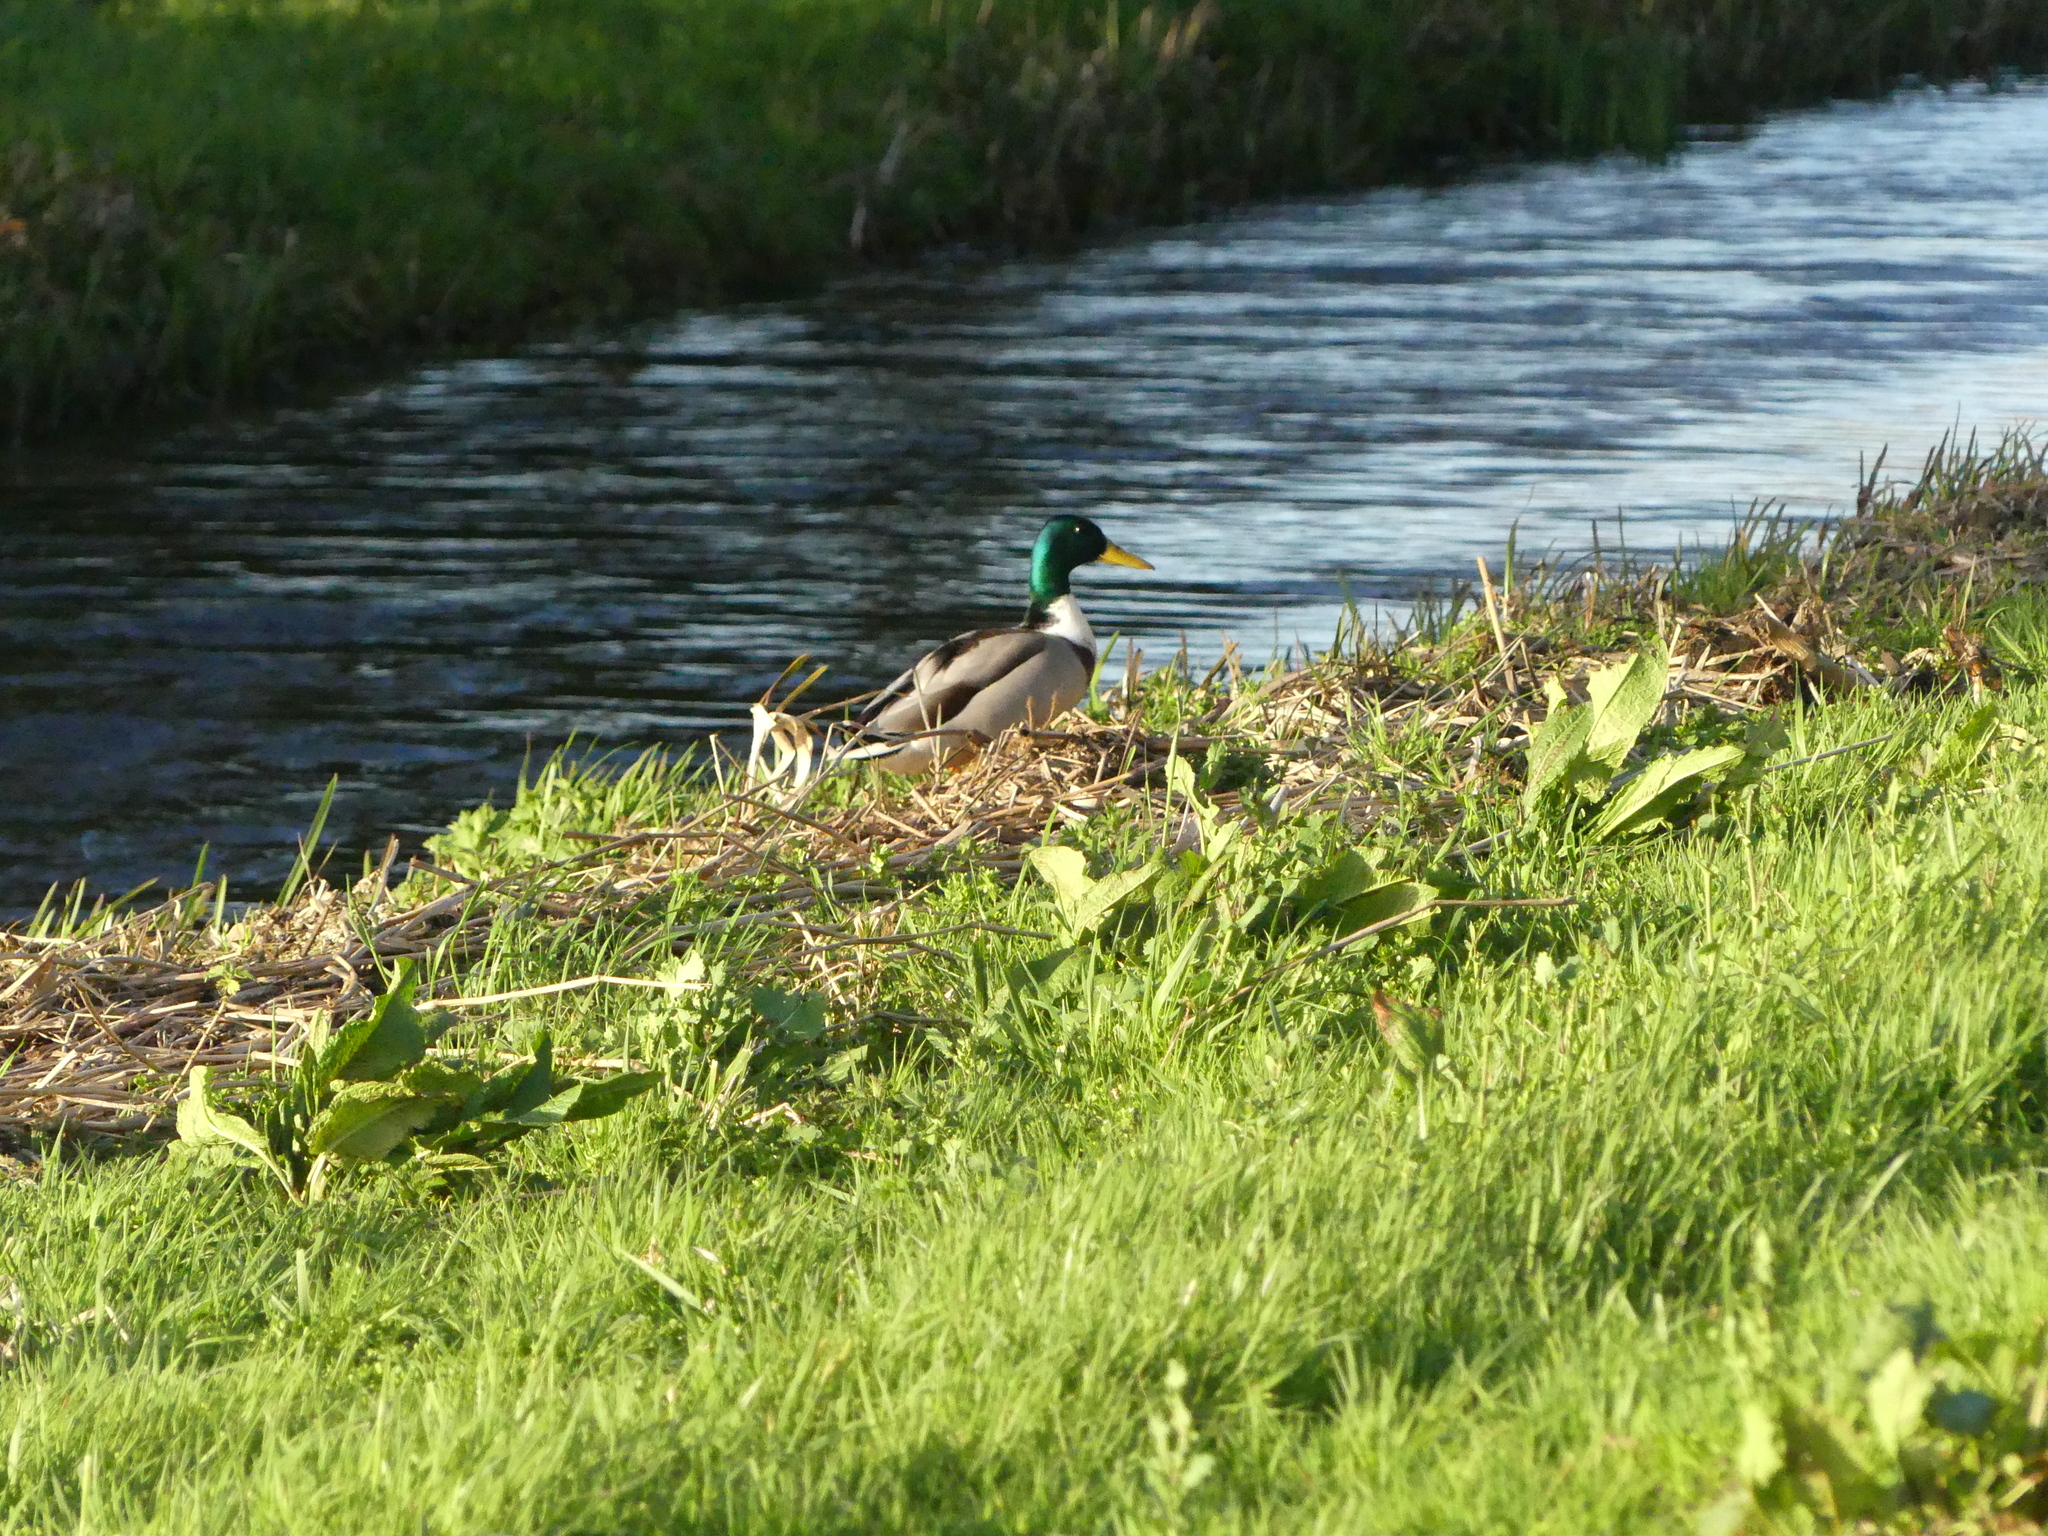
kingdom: Animalia
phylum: Chordata
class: Aves
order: Anseriformes
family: Anatidae
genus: Anas
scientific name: Anas platyrhynchos
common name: Mallard
